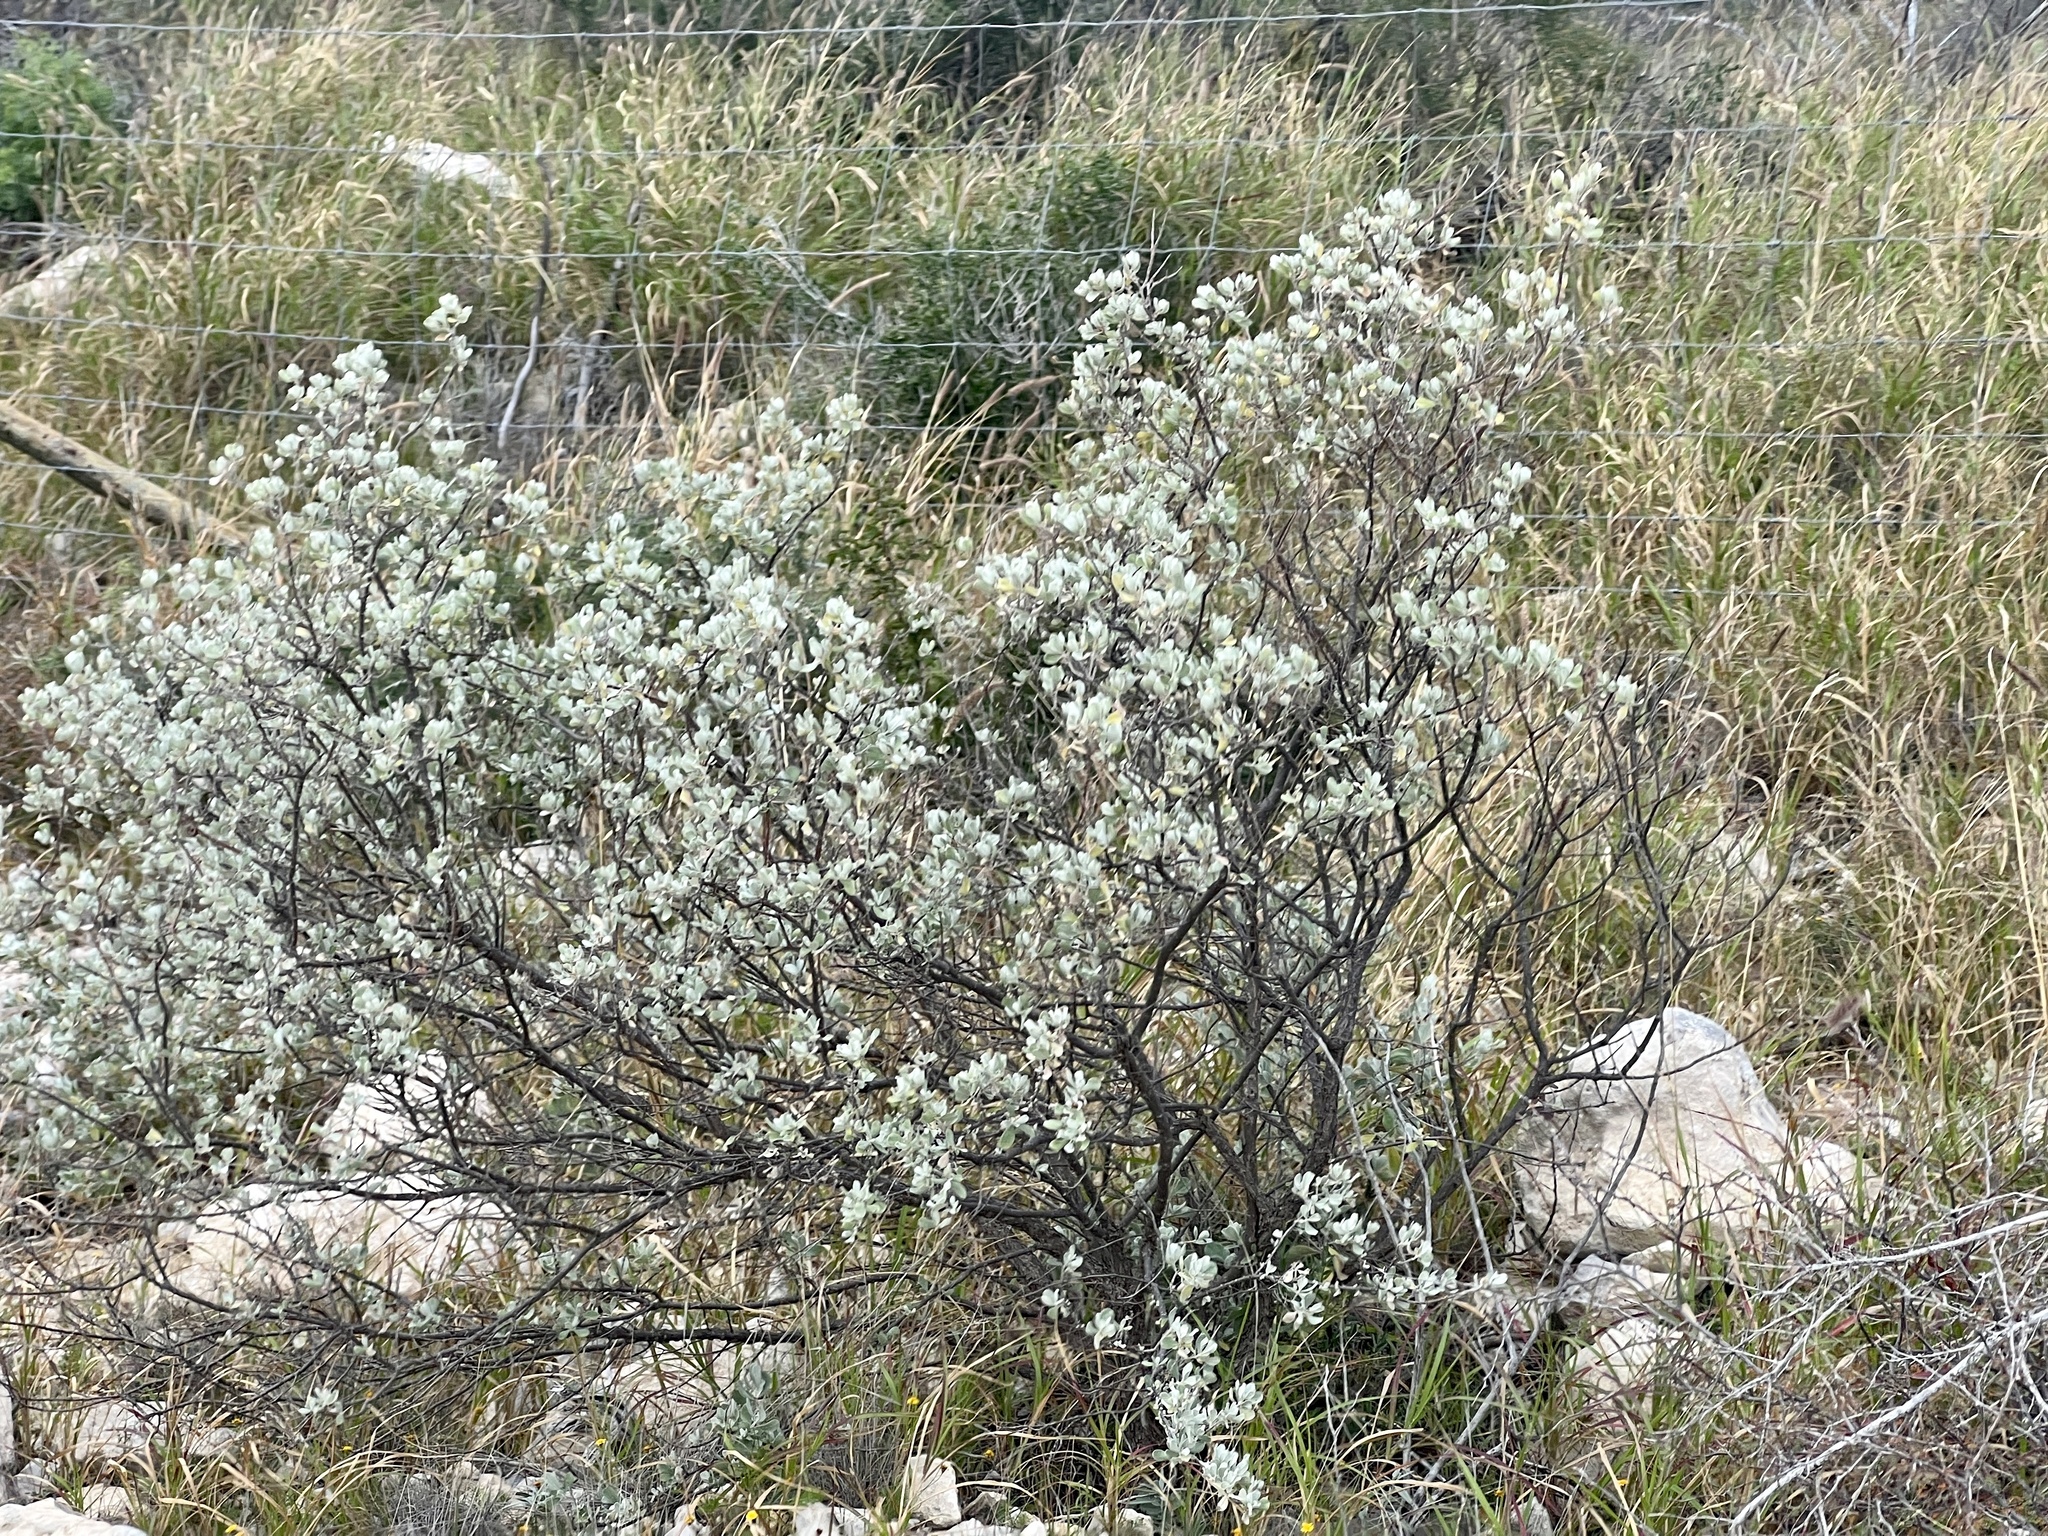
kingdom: Plantae
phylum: Tracheophyta
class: Magnoliopsida
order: Lamiales
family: Scrophulariaceae
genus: Leucophyllum
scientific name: Leucophyllum frutescens
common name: Texas silverleaf
